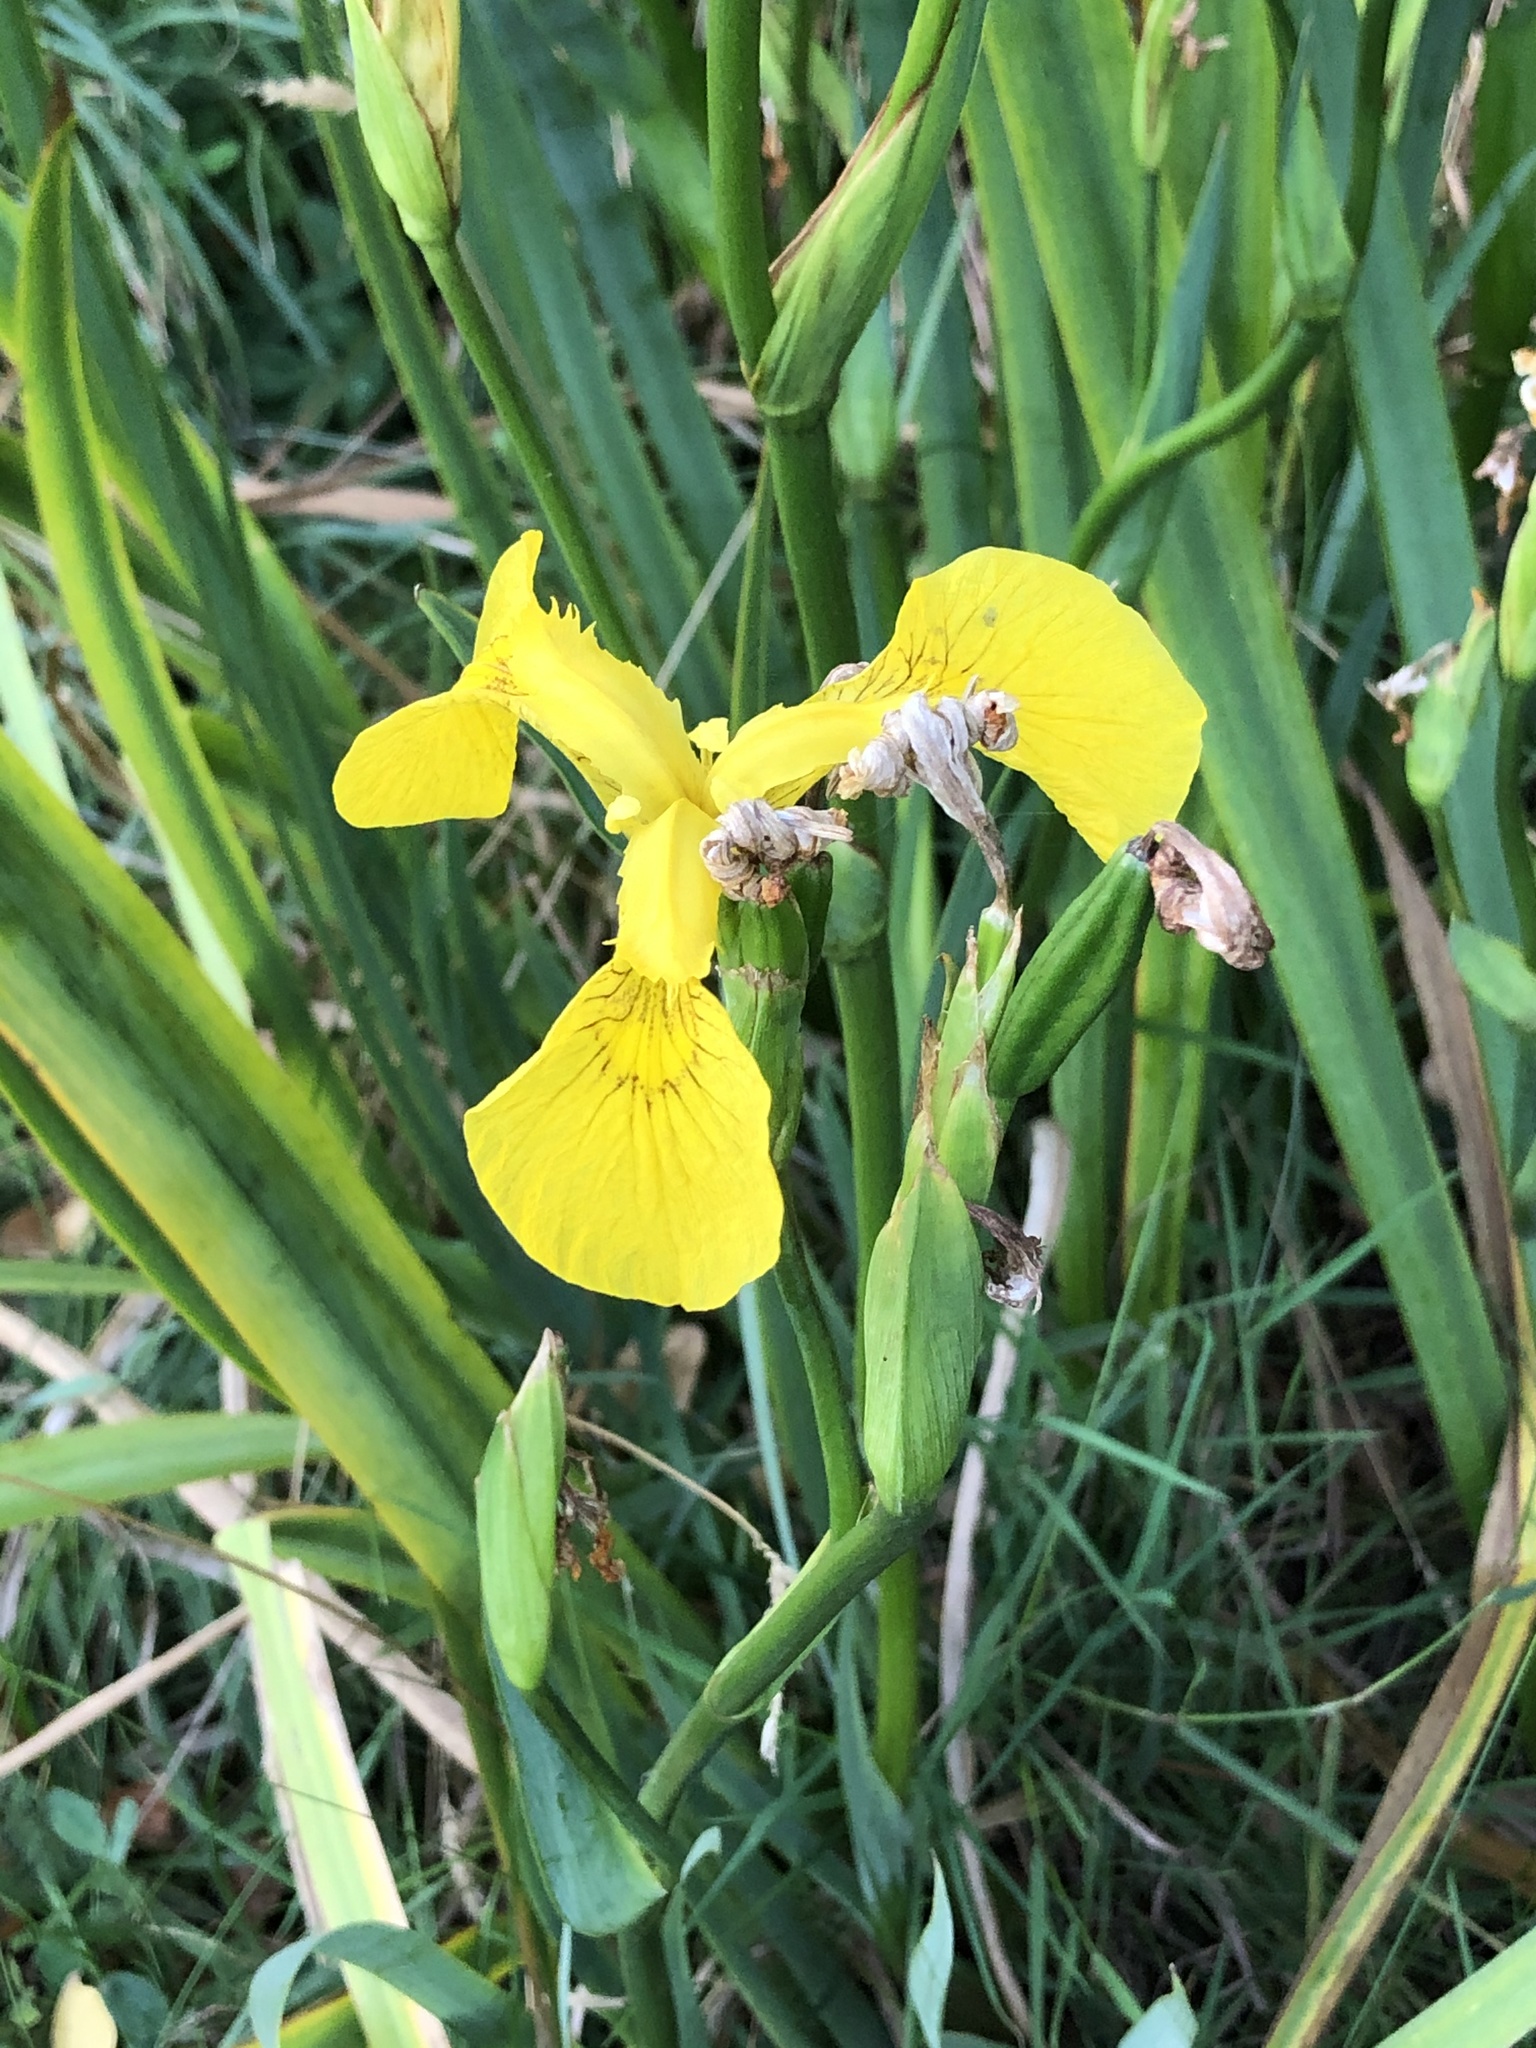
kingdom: Plantae
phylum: Tracheophyta
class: Liliopsida
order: Asparagales
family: Iridaceae
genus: Iris
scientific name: Iris pseudacorus
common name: Yellow flag
